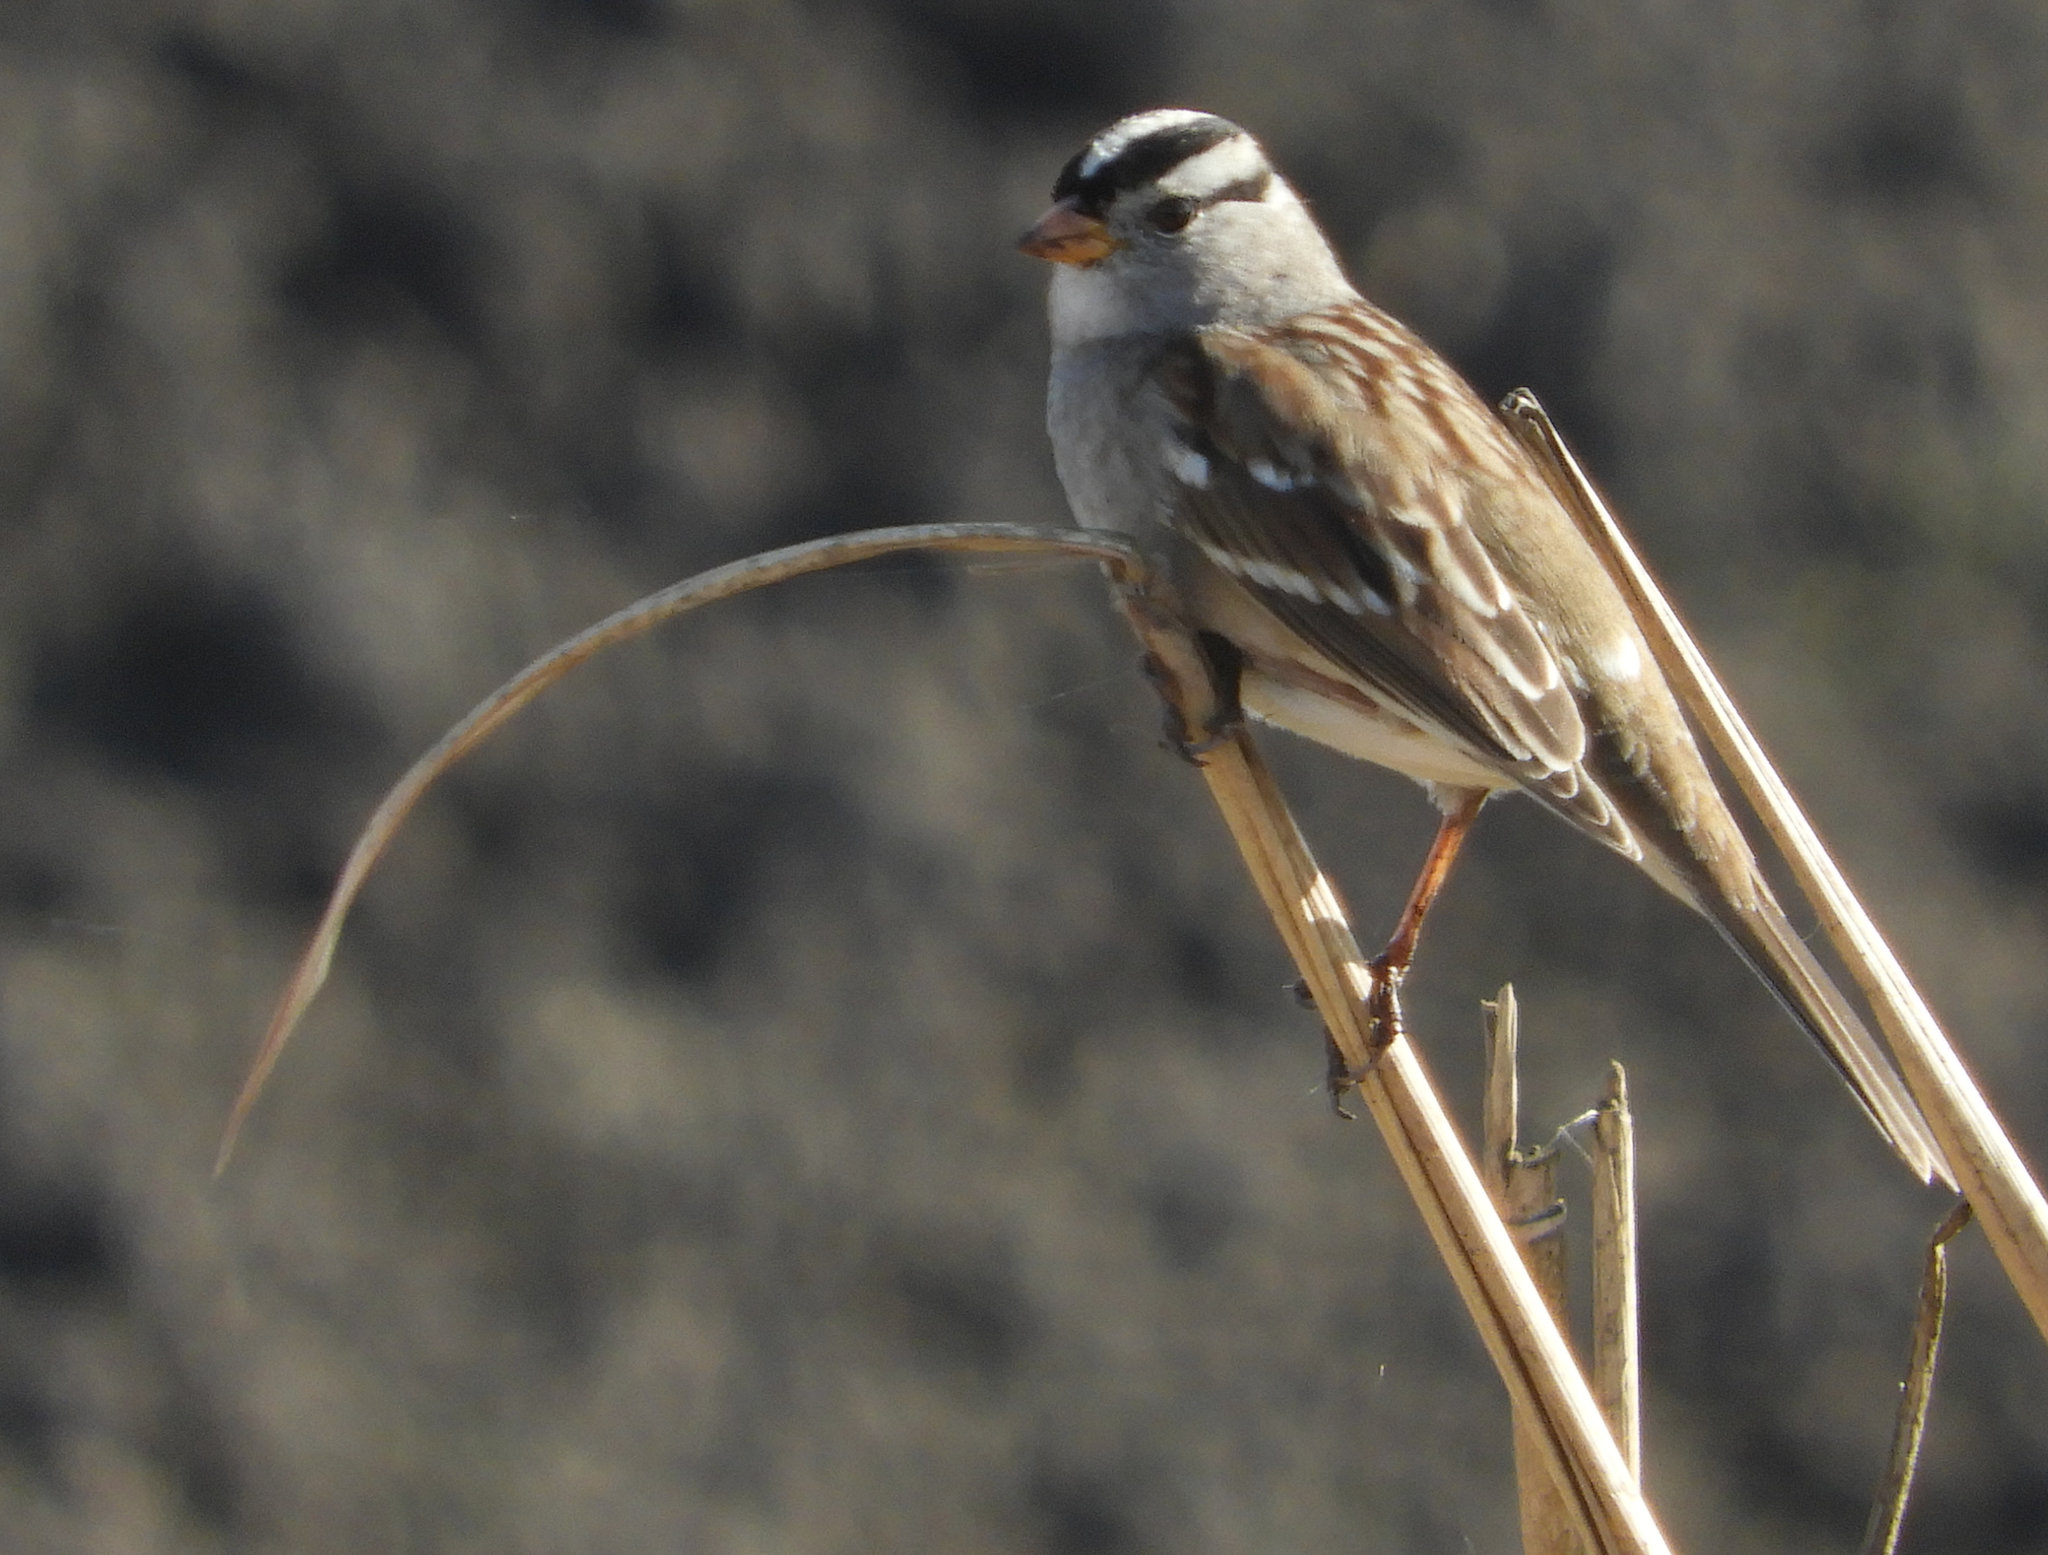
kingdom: Animalia
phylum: Chordata
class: Aves
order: Passeriformes
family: Passerellidae
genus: Zonotrichia
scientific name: Zonotrichia leucophrys
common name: White-crowned sparrow
